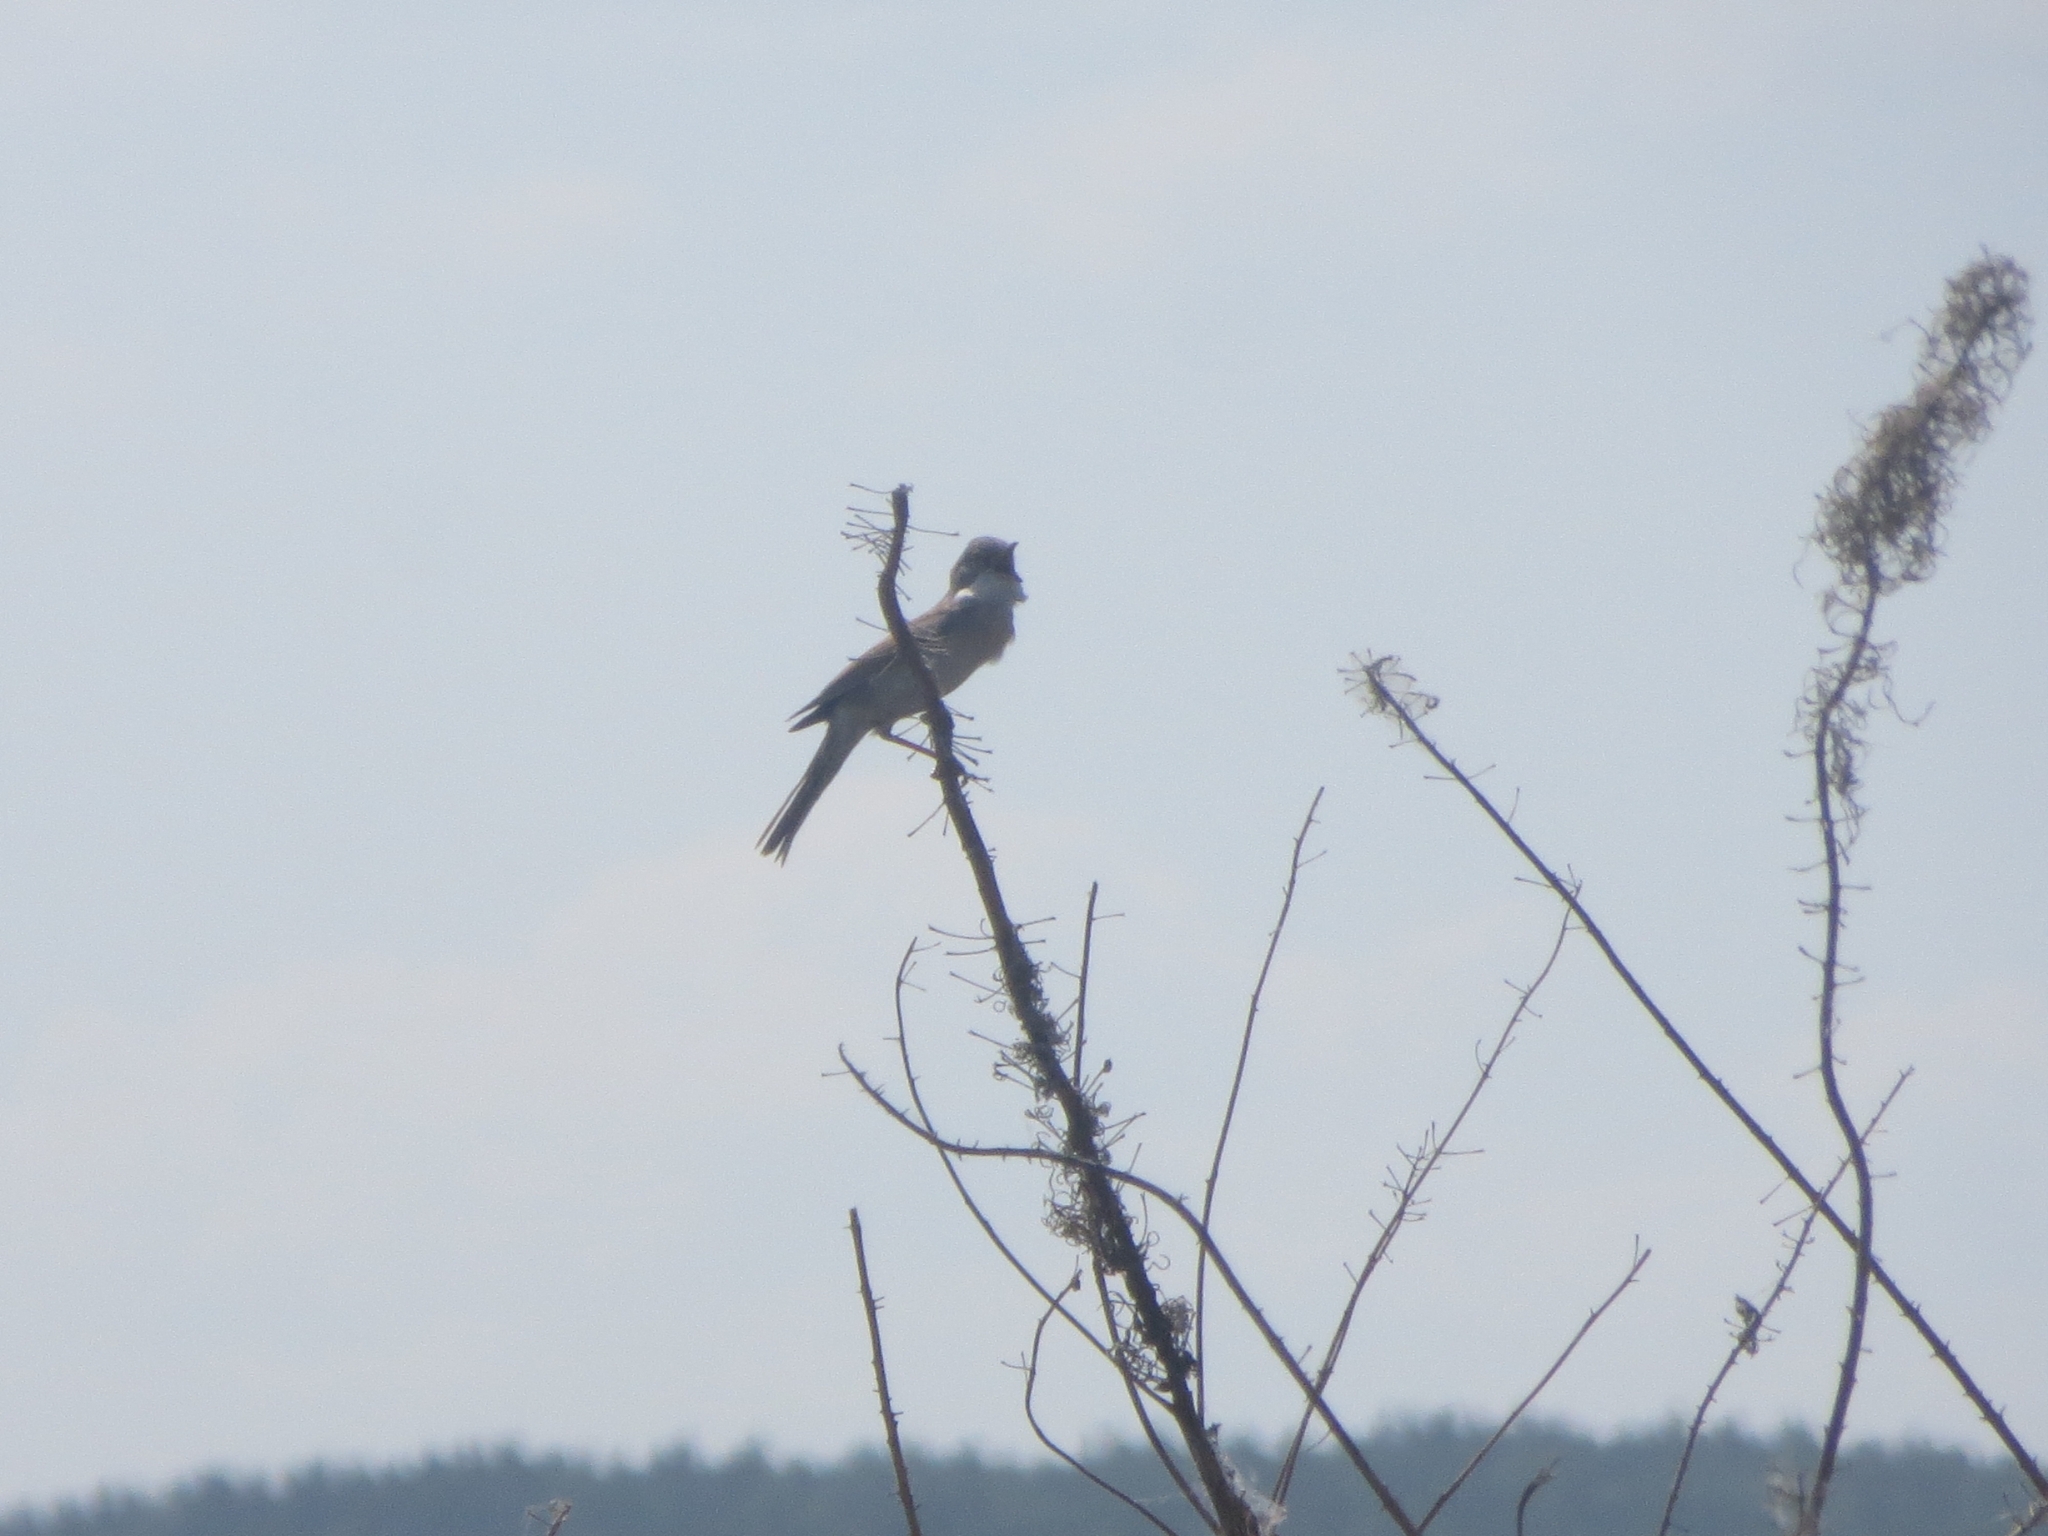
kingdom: Animalia
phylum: Chordata
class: Aves
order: Passeriformes
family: Sylviidae
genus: Sylvia
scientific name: Sylvia communis
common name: Common whitethroat
